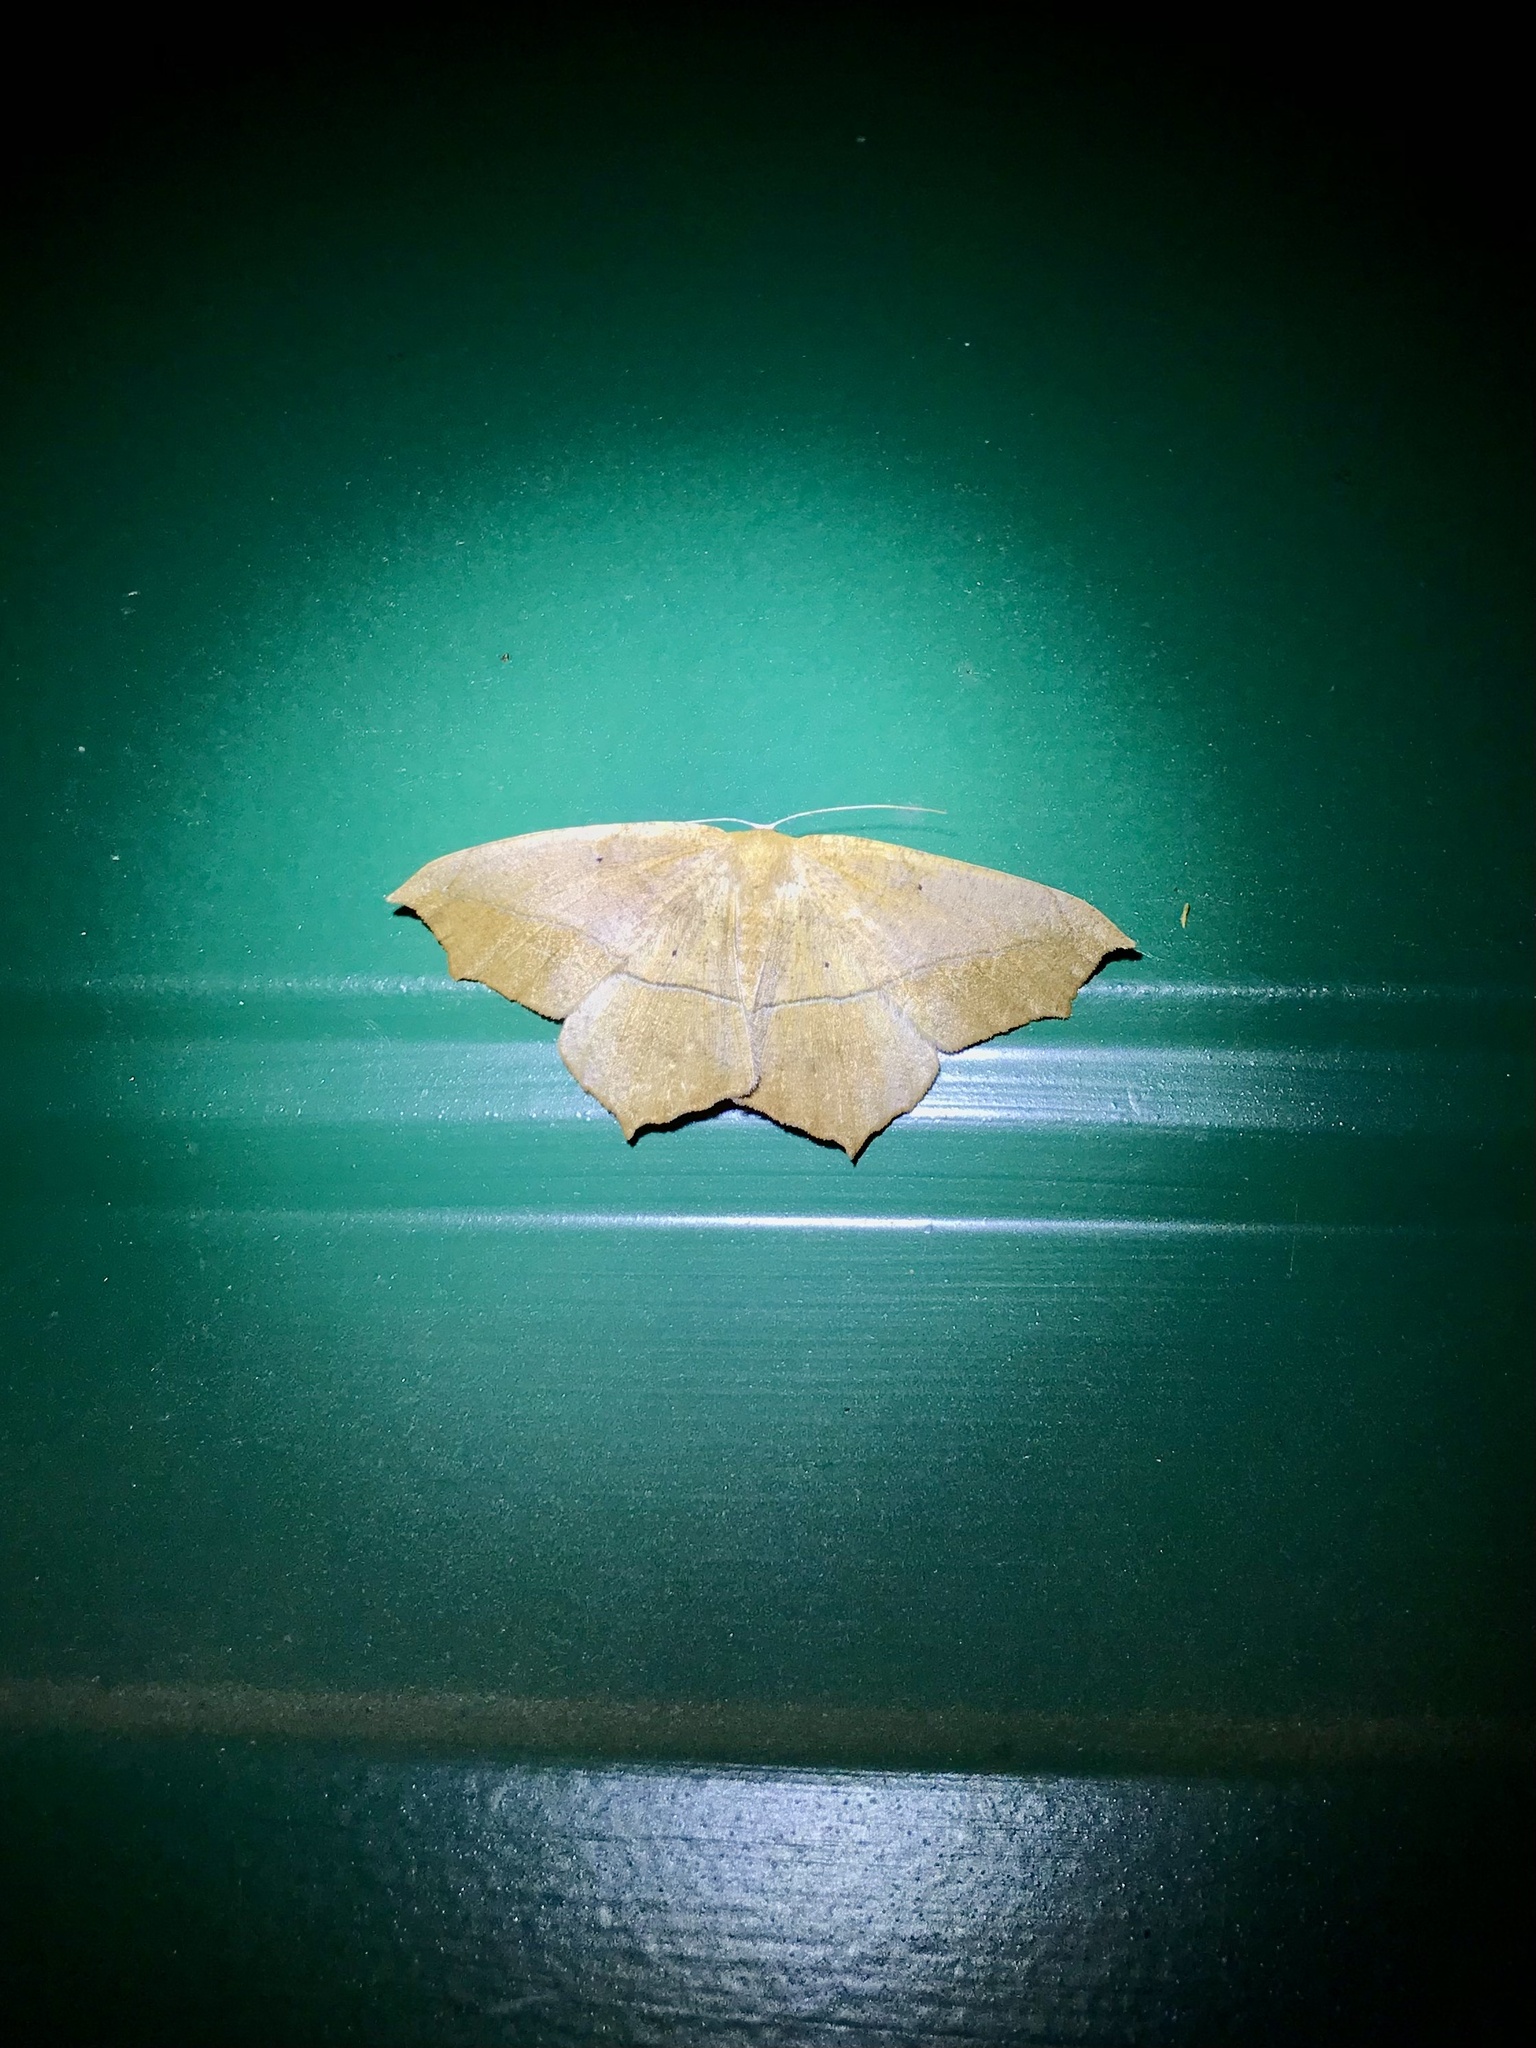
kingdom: Animalia
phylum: Arthropoda
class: Insecta
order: Lepidoptera
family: Geometridae
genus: Prochoerodes
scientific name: Prochoerodes lineola
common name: Large maple spanworm
